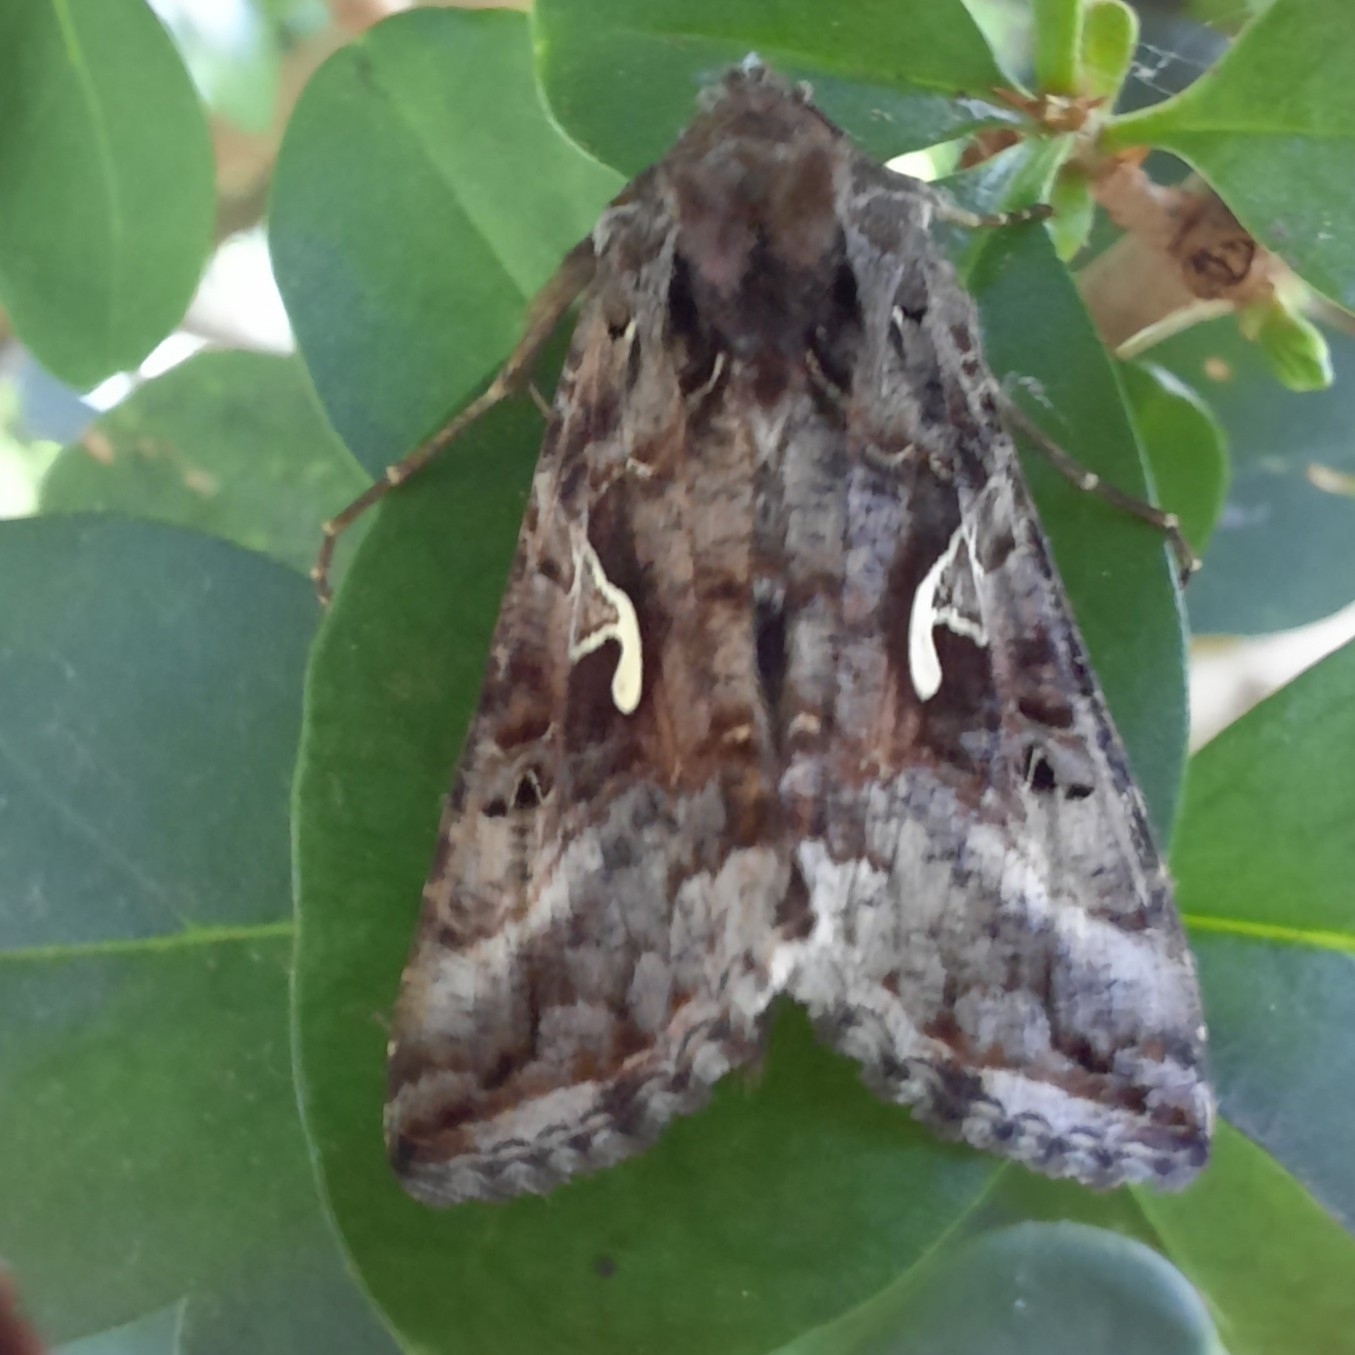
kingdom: Animalia
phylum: Arthropoda
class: Insecta
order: Lepidoptera
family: Noctuidae
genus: Autographa
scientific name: Autographa gamma
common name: Silver y
